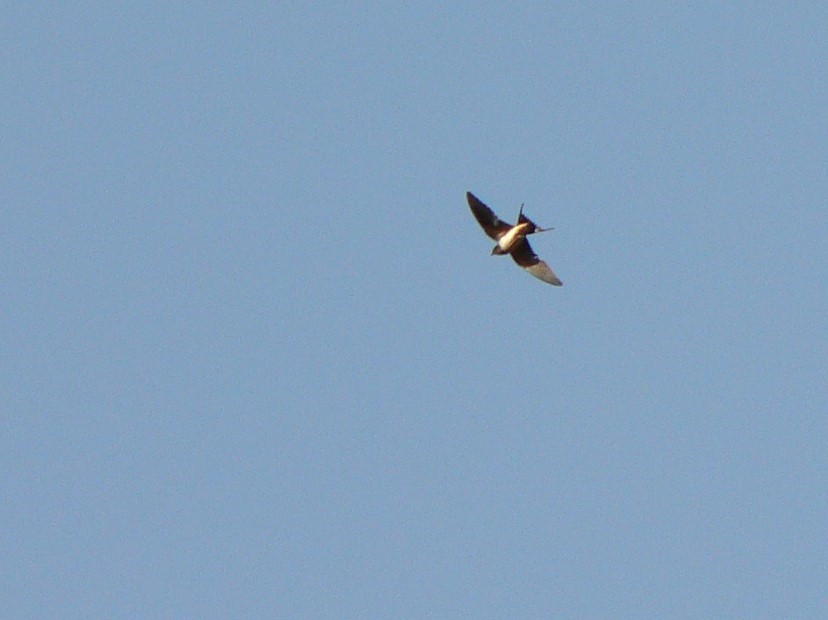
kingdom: Animalia
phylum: Chordata
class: Aves
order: Passeriformes
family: Hirundinidae
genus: Hirundo
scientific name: Hirundo rustica
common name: Barn swallow
